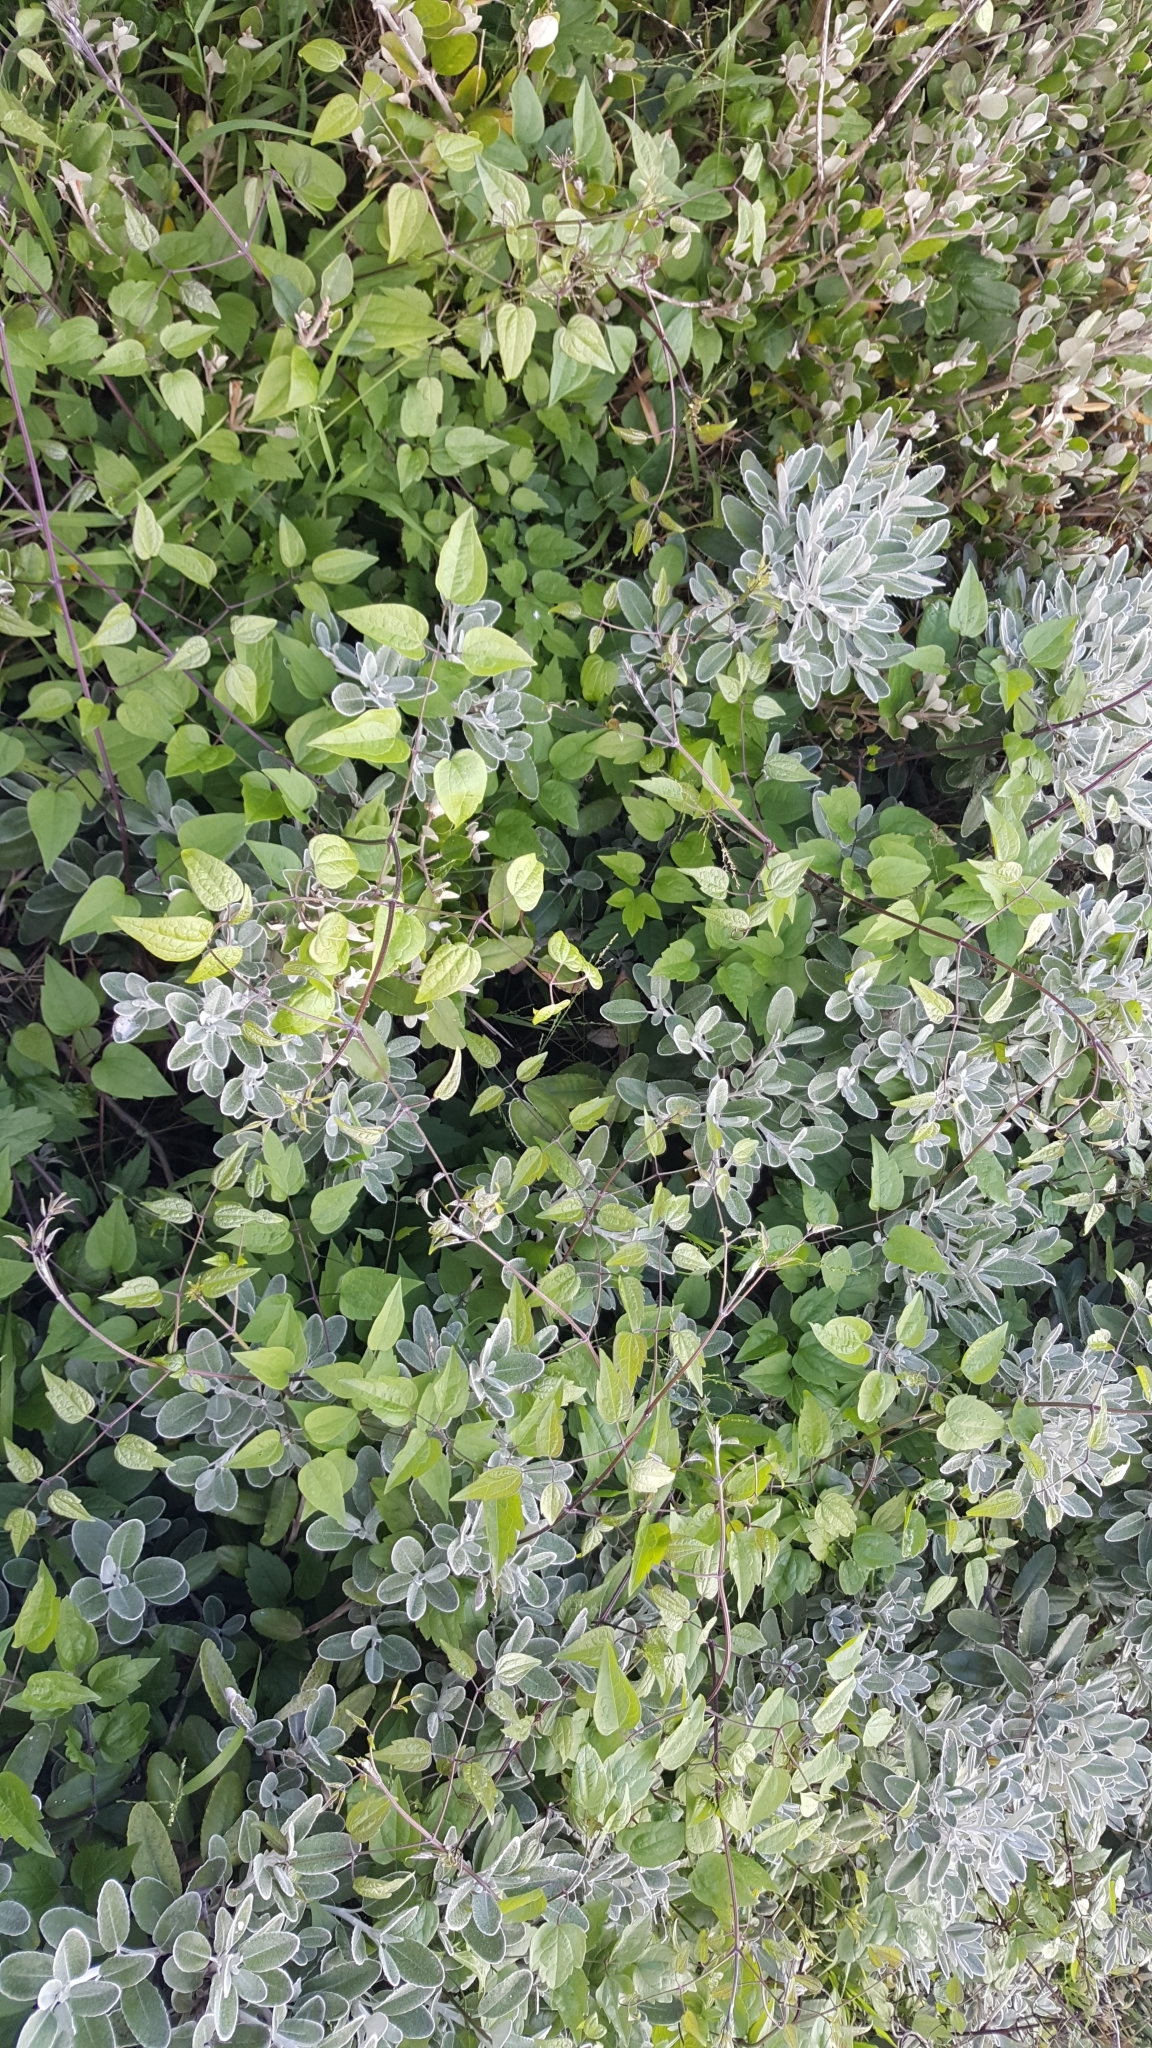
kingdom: Plantae
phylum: Tracheophyta
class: Magnoliopsida
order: Ranunculales
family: Ranunculaceae
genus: Clematis
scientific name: Clematis vitalba
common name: Evergreen clematis
